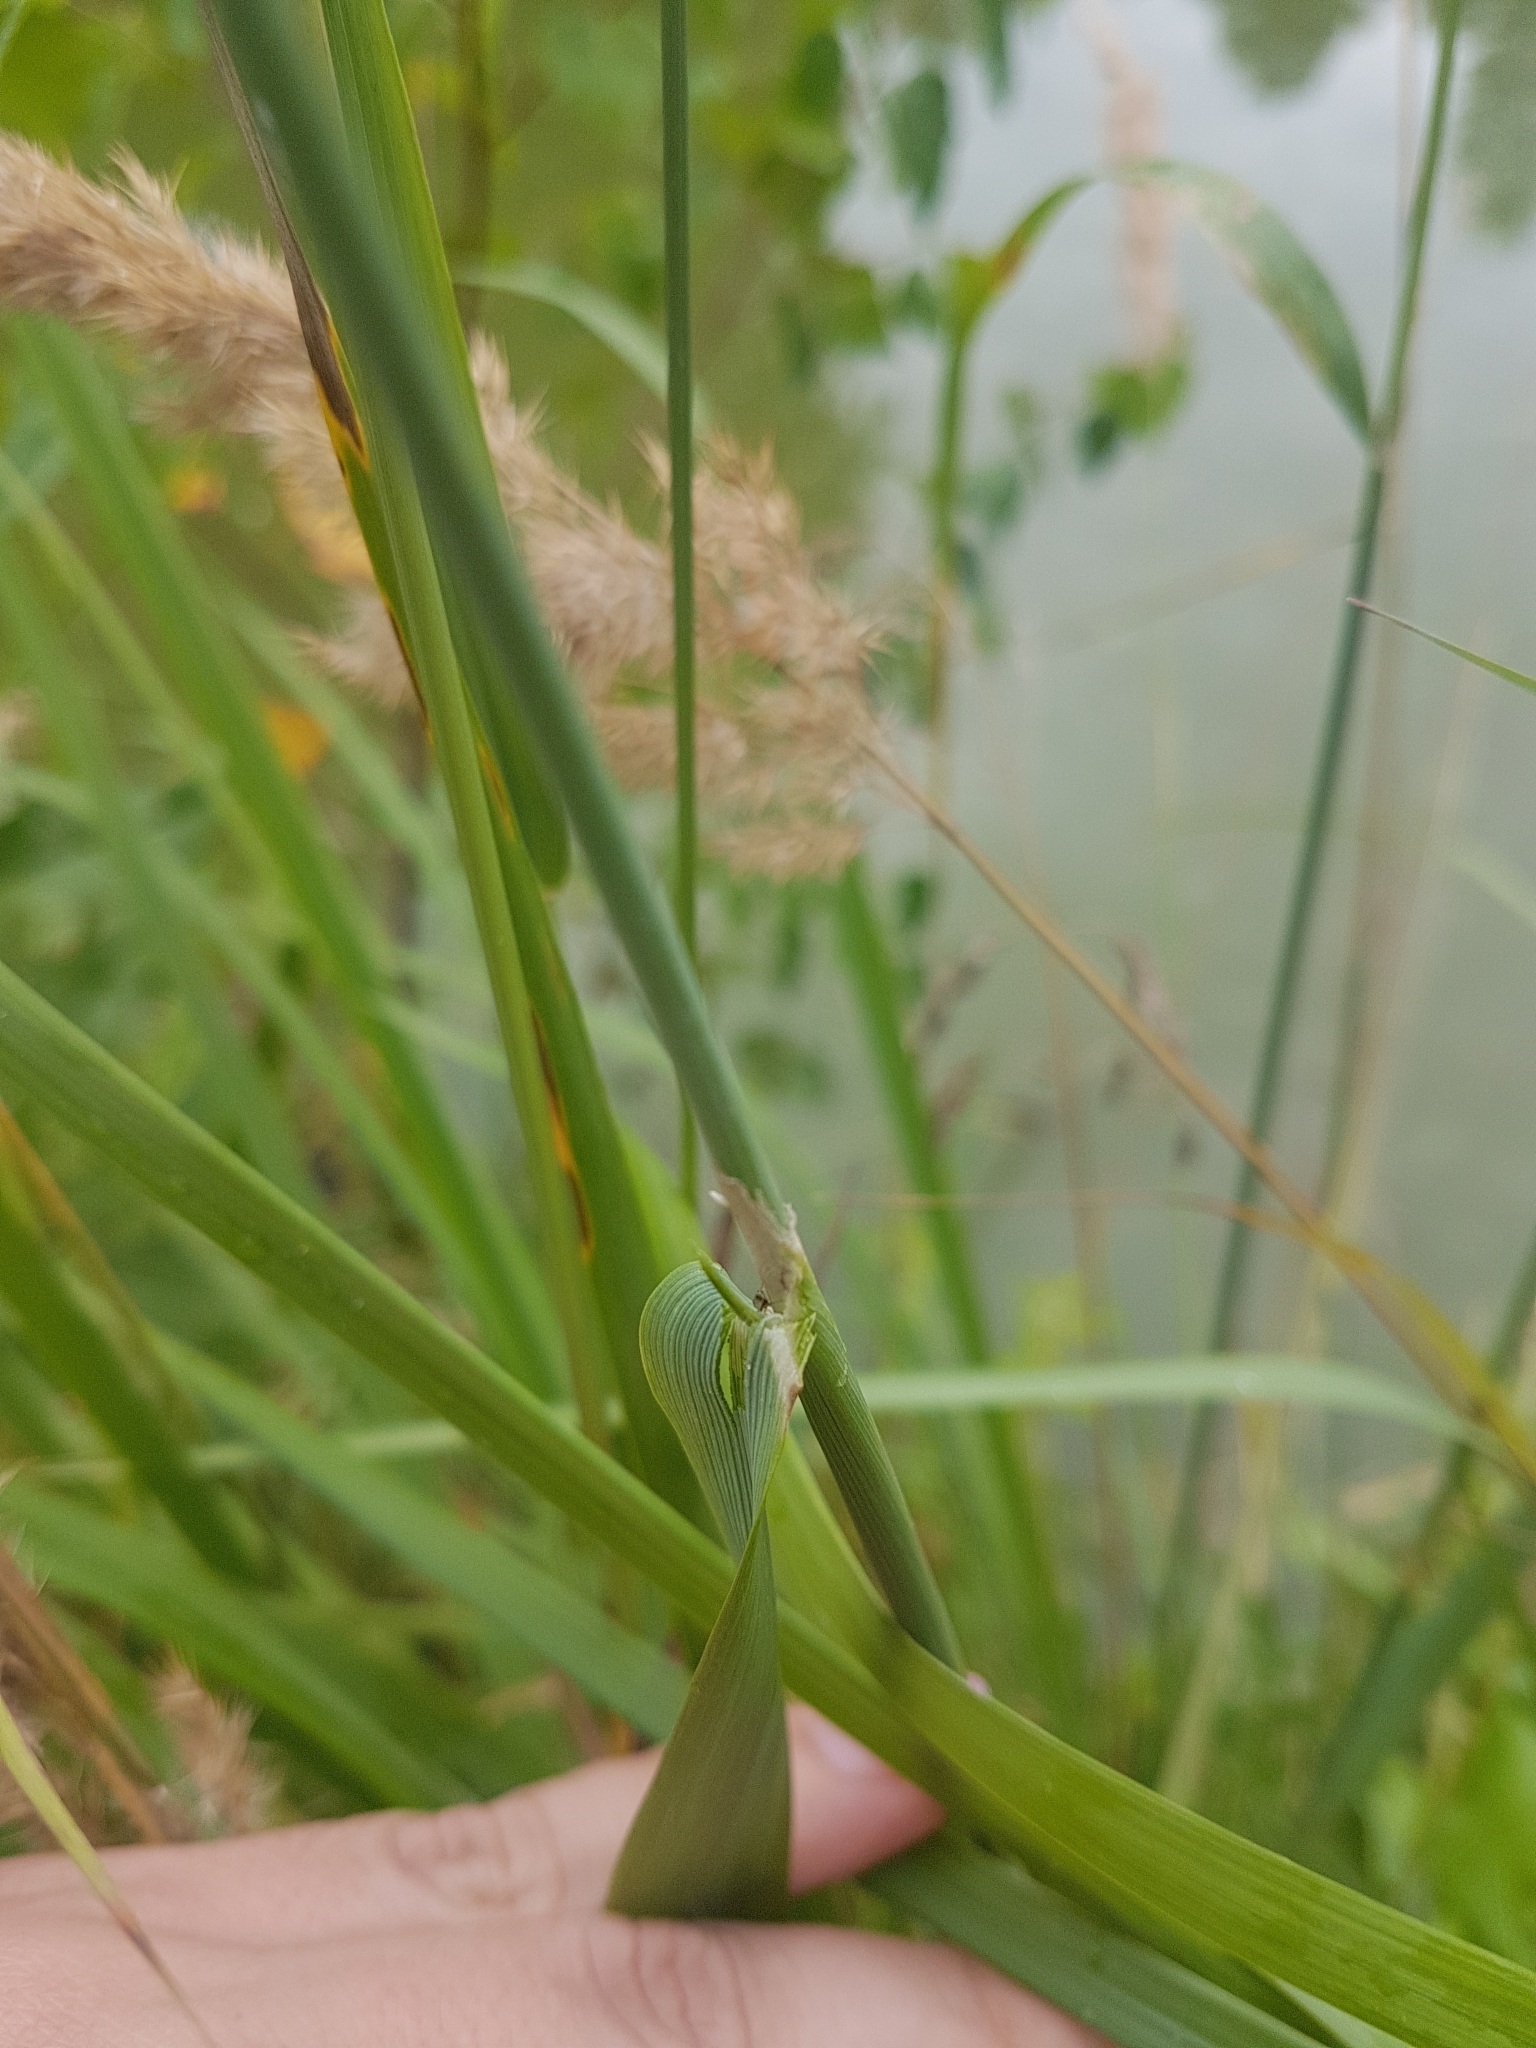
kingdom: Plantae
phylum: Tracheophyta
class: Liliopsida
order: Poales
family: Poaceae
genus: Calamagrostis
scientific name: Calamagrostis epigejos
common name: Wood small-reed
